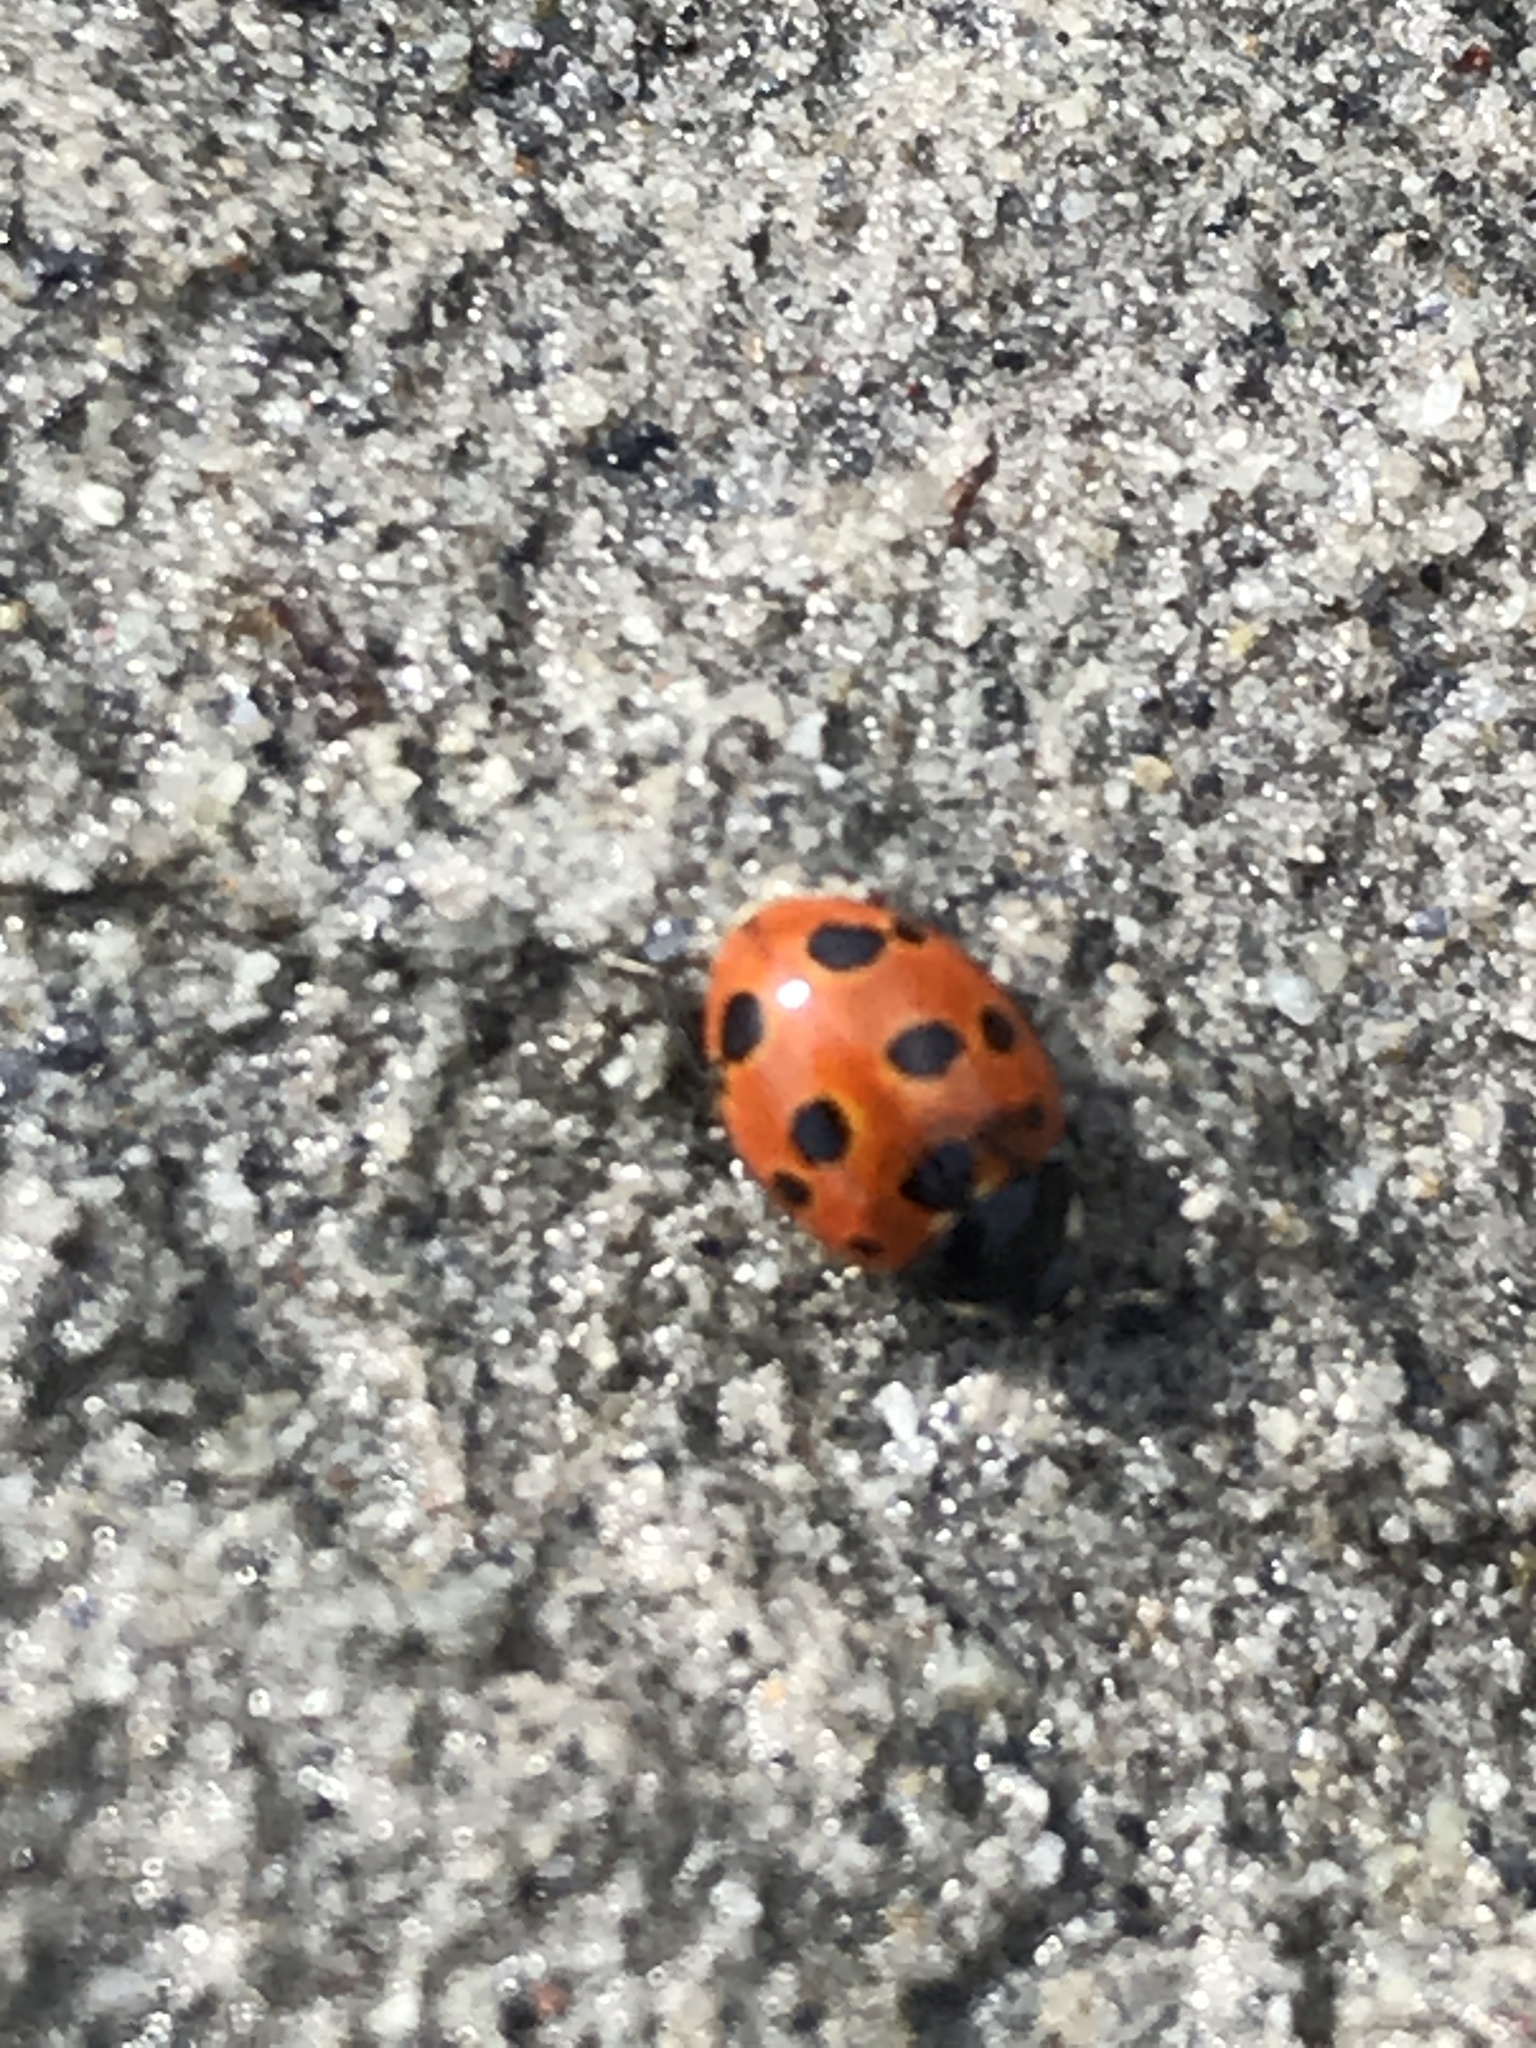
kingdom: Animalia
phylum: Arthropoda
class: Insecta
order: Coleoptera
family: Coccinellidae
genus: Coccinella
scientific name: Coccinella undecimpunctata
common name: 11-spot ladybird
